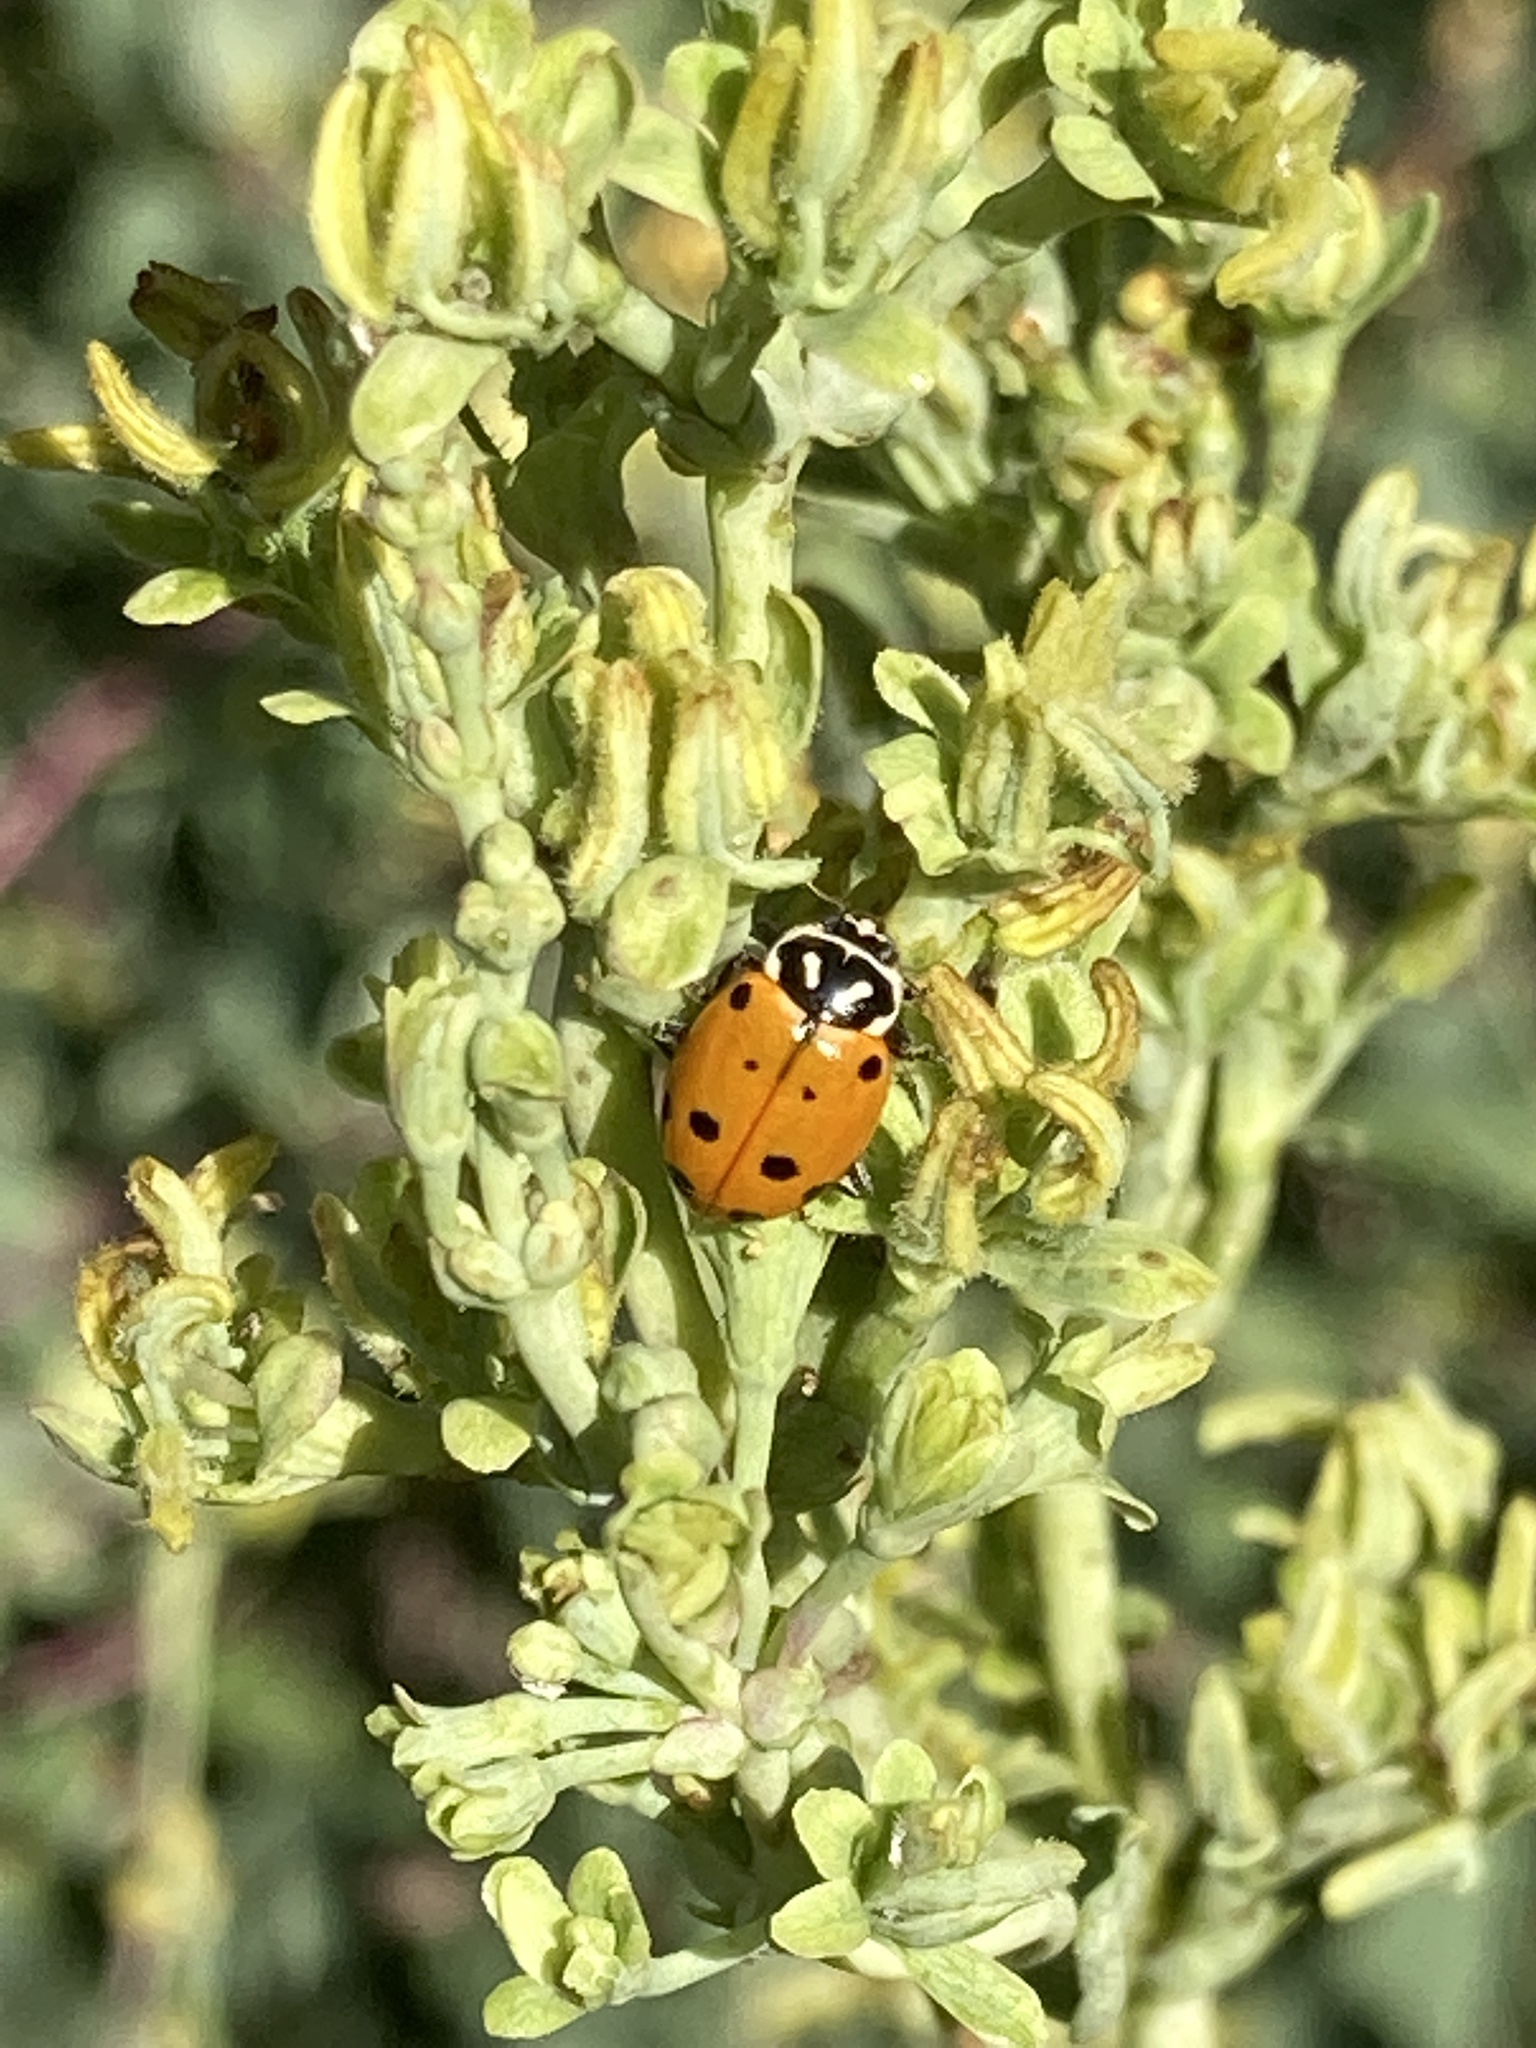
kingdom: Animalia
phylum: Arthropoda
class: Insecta
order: Coleoptera
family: Coccinellidae
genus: Hippodamia
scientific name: Hippodamia convergens
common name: Convergent lady beetle
